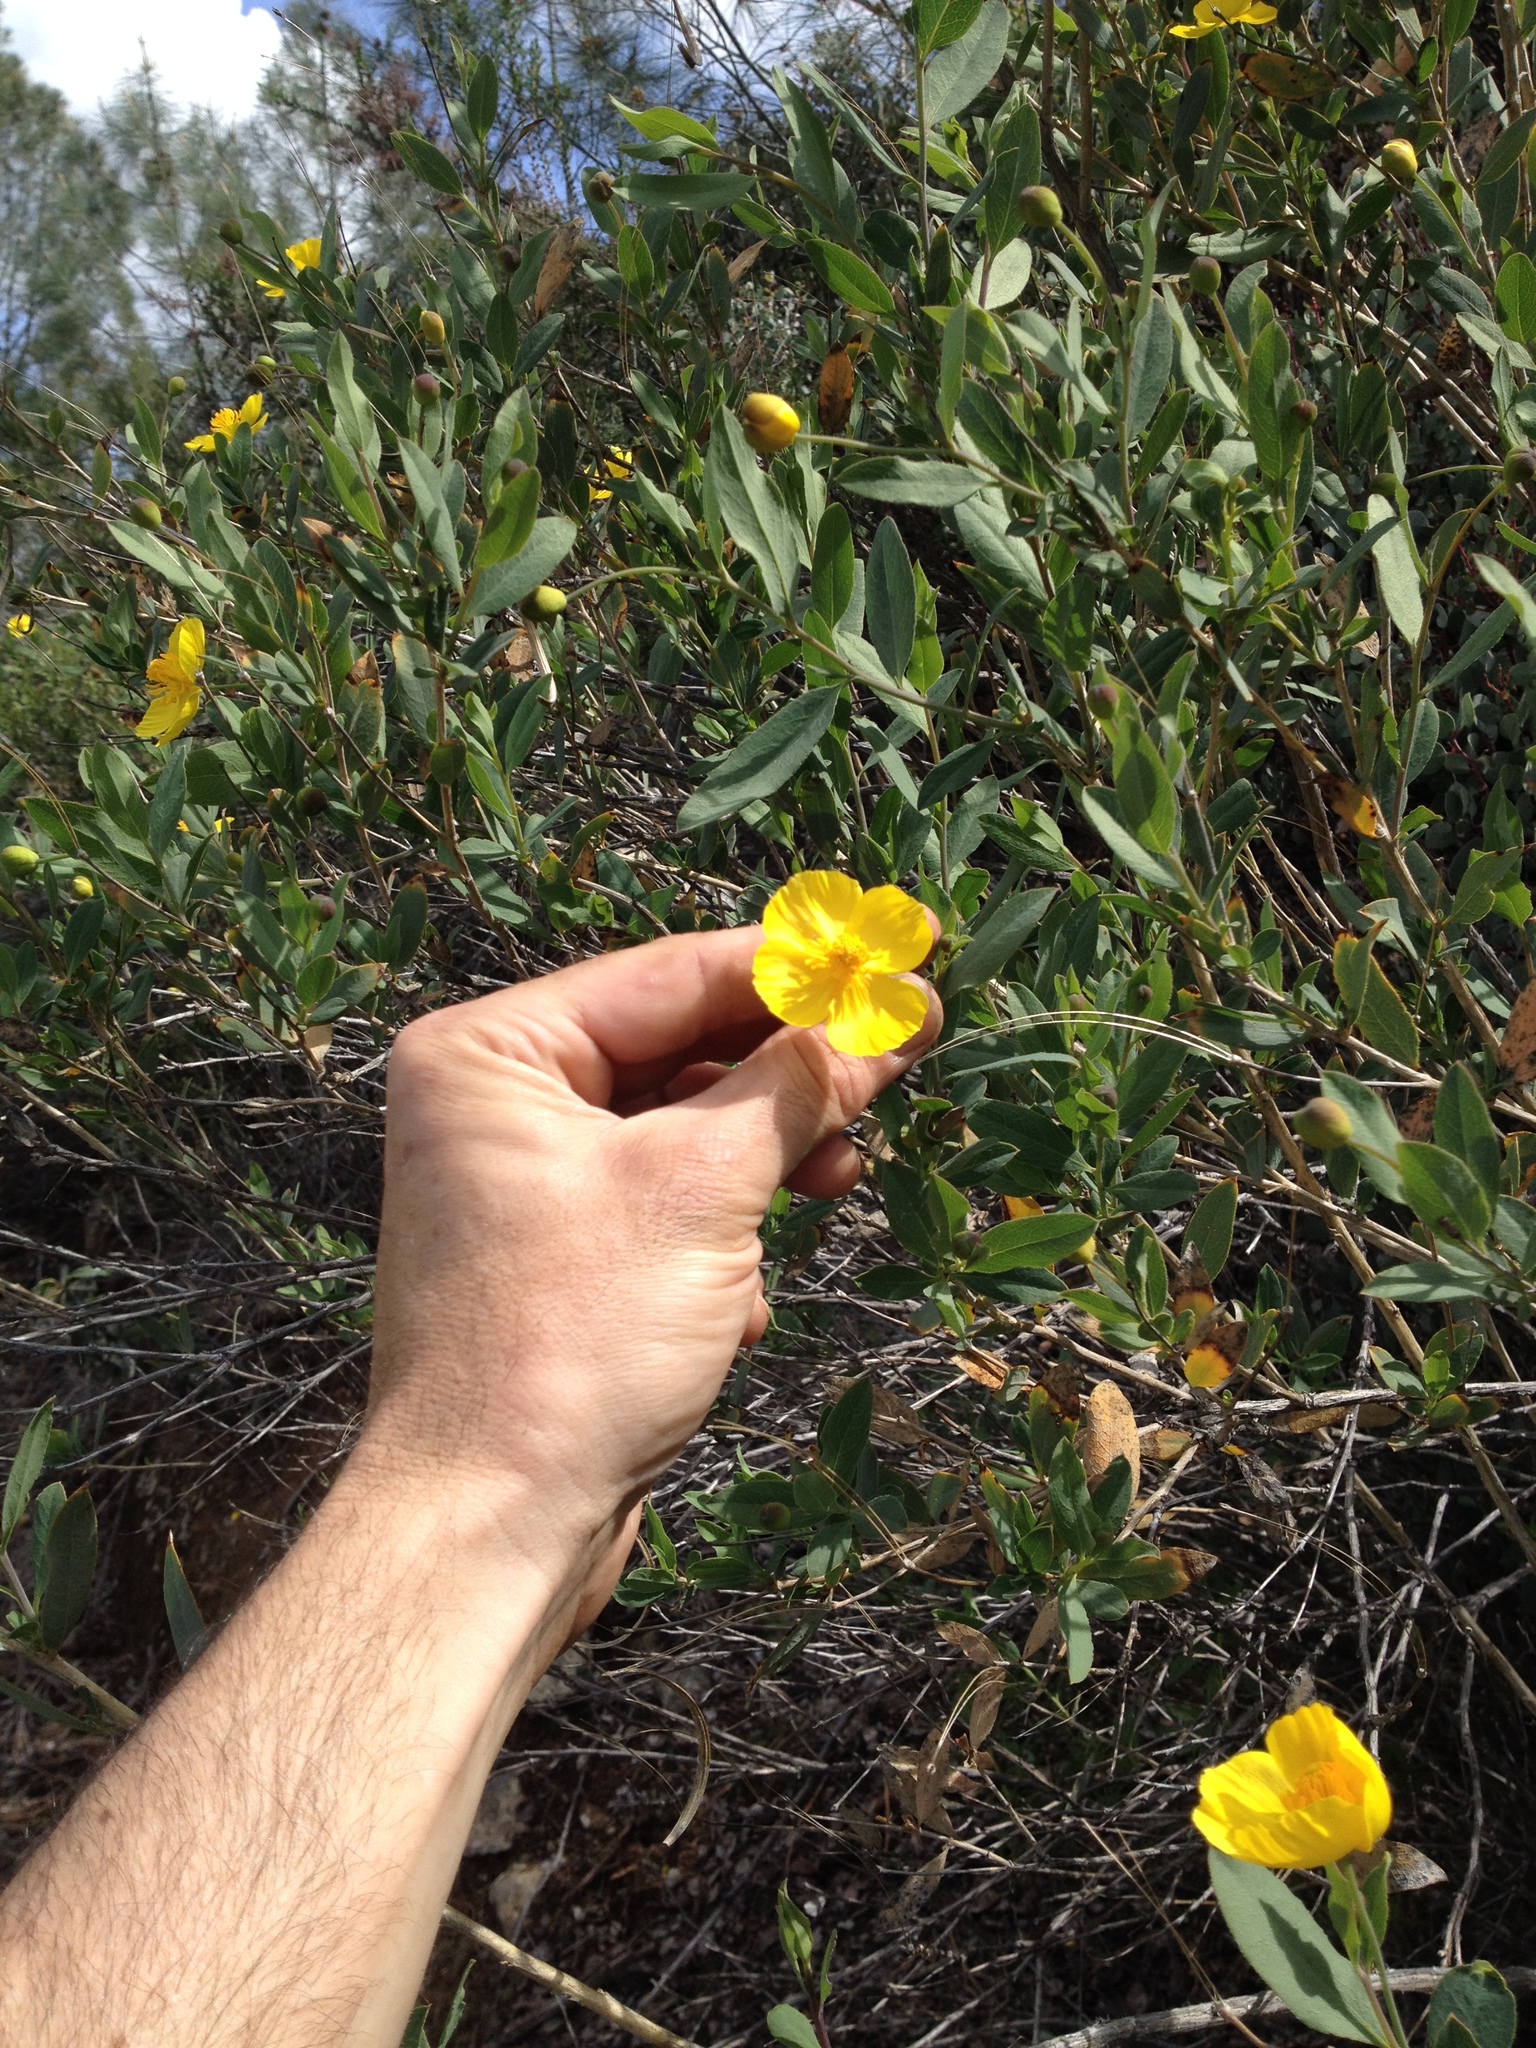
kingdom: Plantae
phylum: Tracheophyta
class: Magnoliopsida
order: Ranunculales
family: Papaveraceae
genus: Dendromecon
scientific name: Dendromecon rigida
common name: Tree poppy
